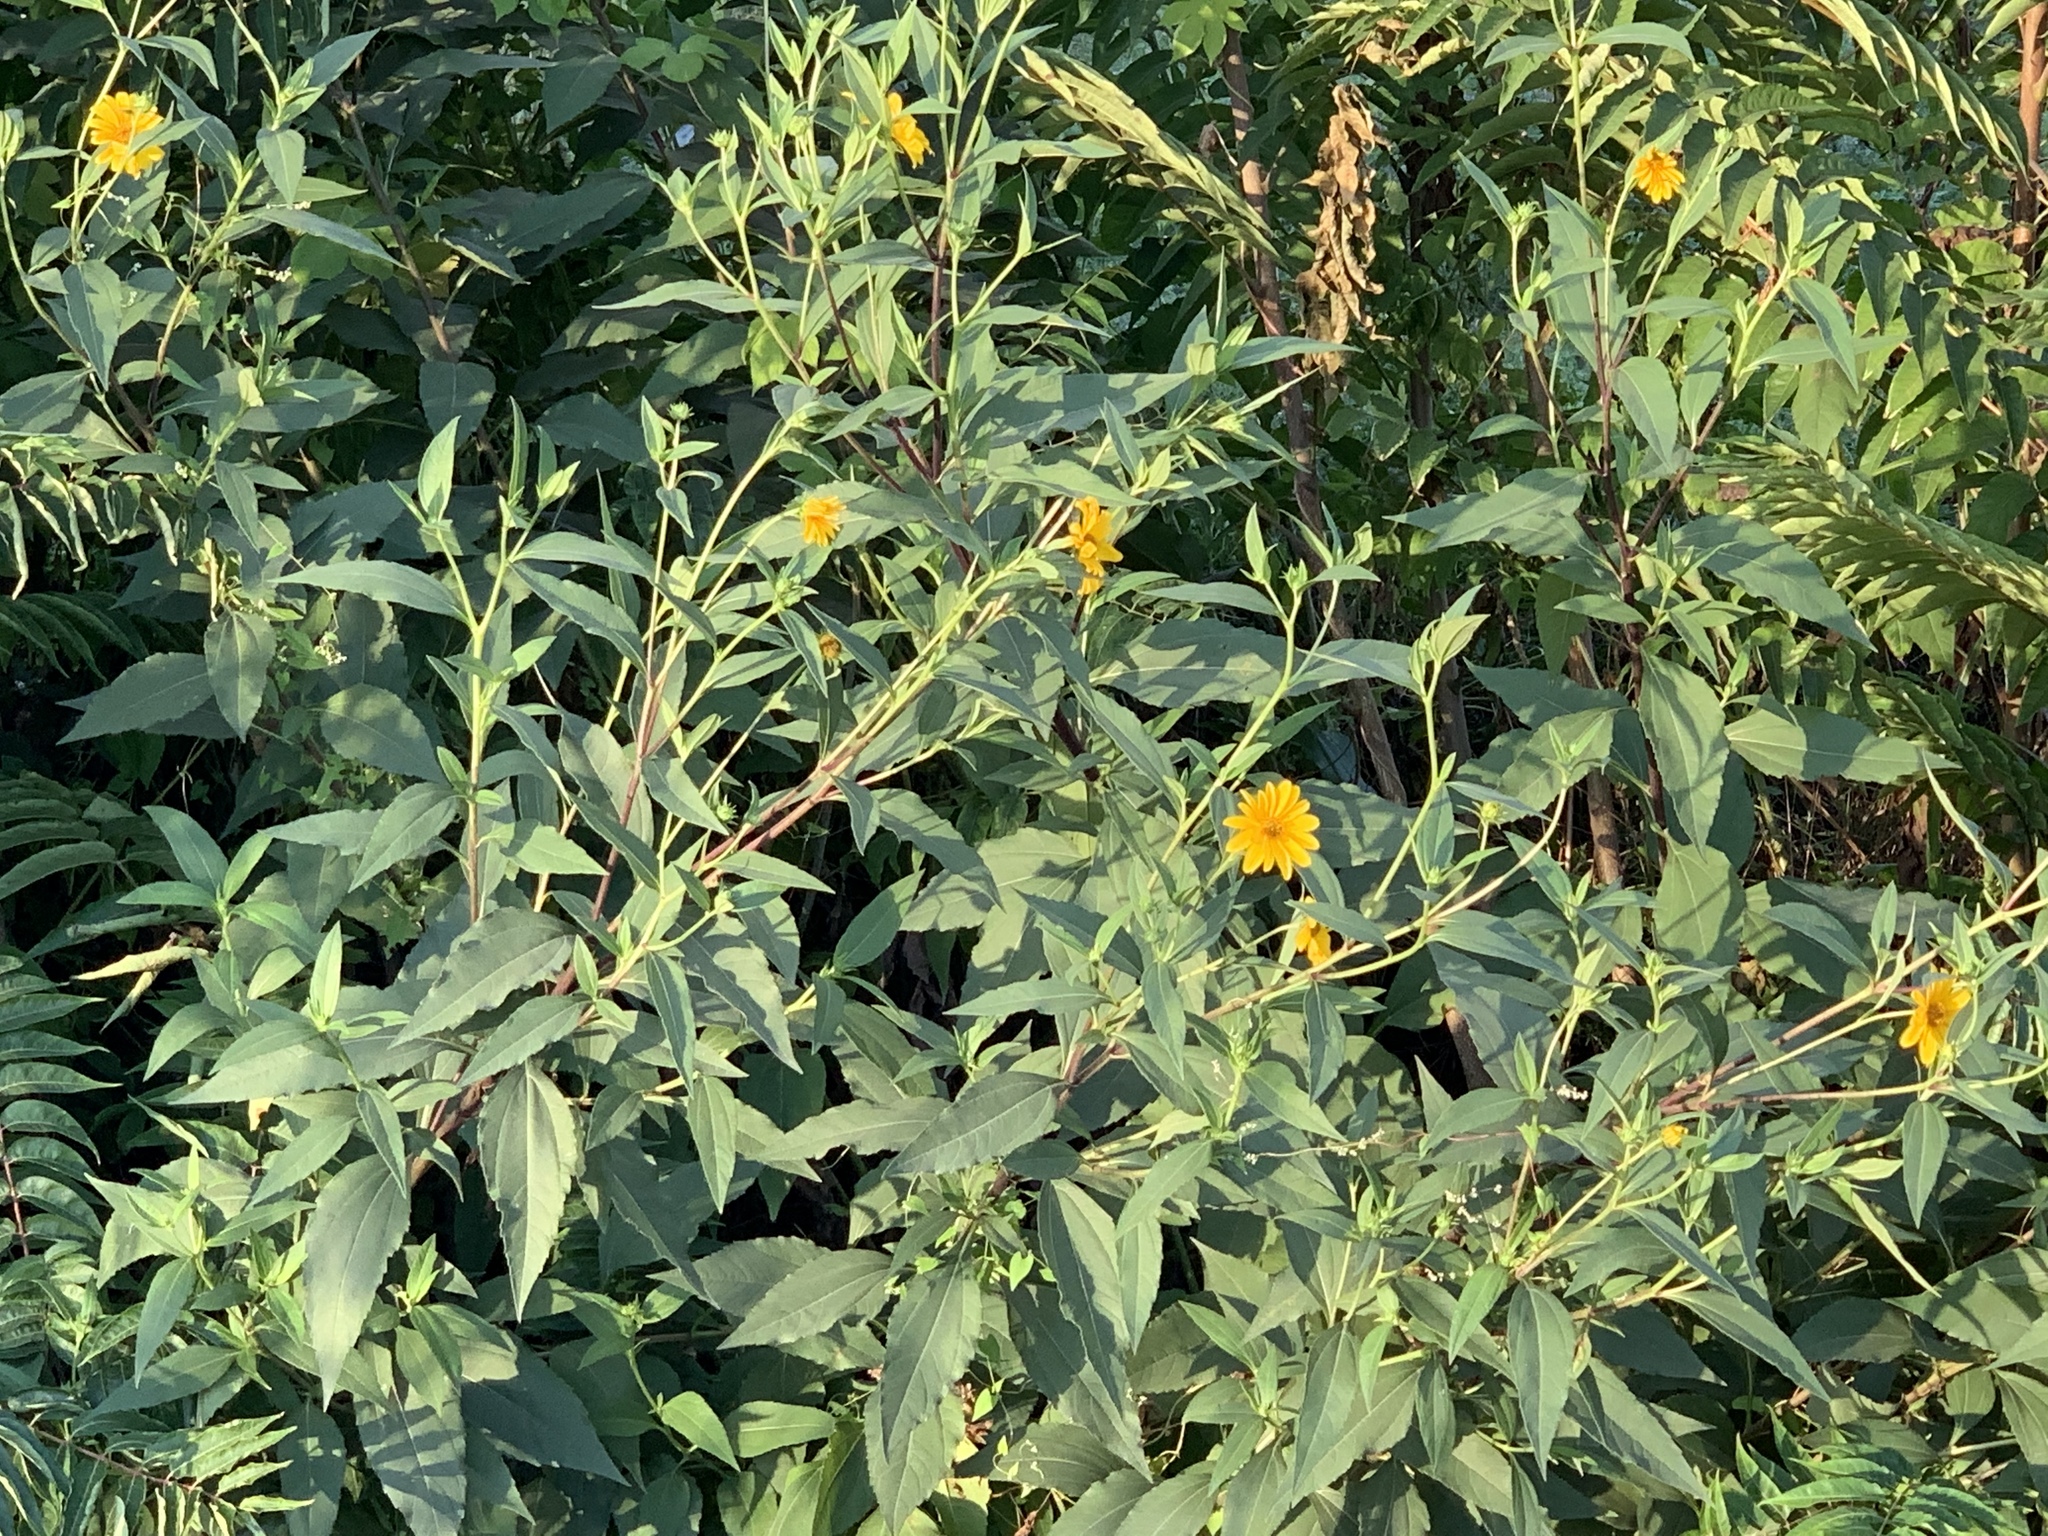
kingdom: Plantae
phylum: Tracheophyta
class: Magnoliopsida
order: Asterales
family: Asteraceae
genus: Helianthus
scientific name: Helianthus tuberosus
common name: Jerusalem artichoke
